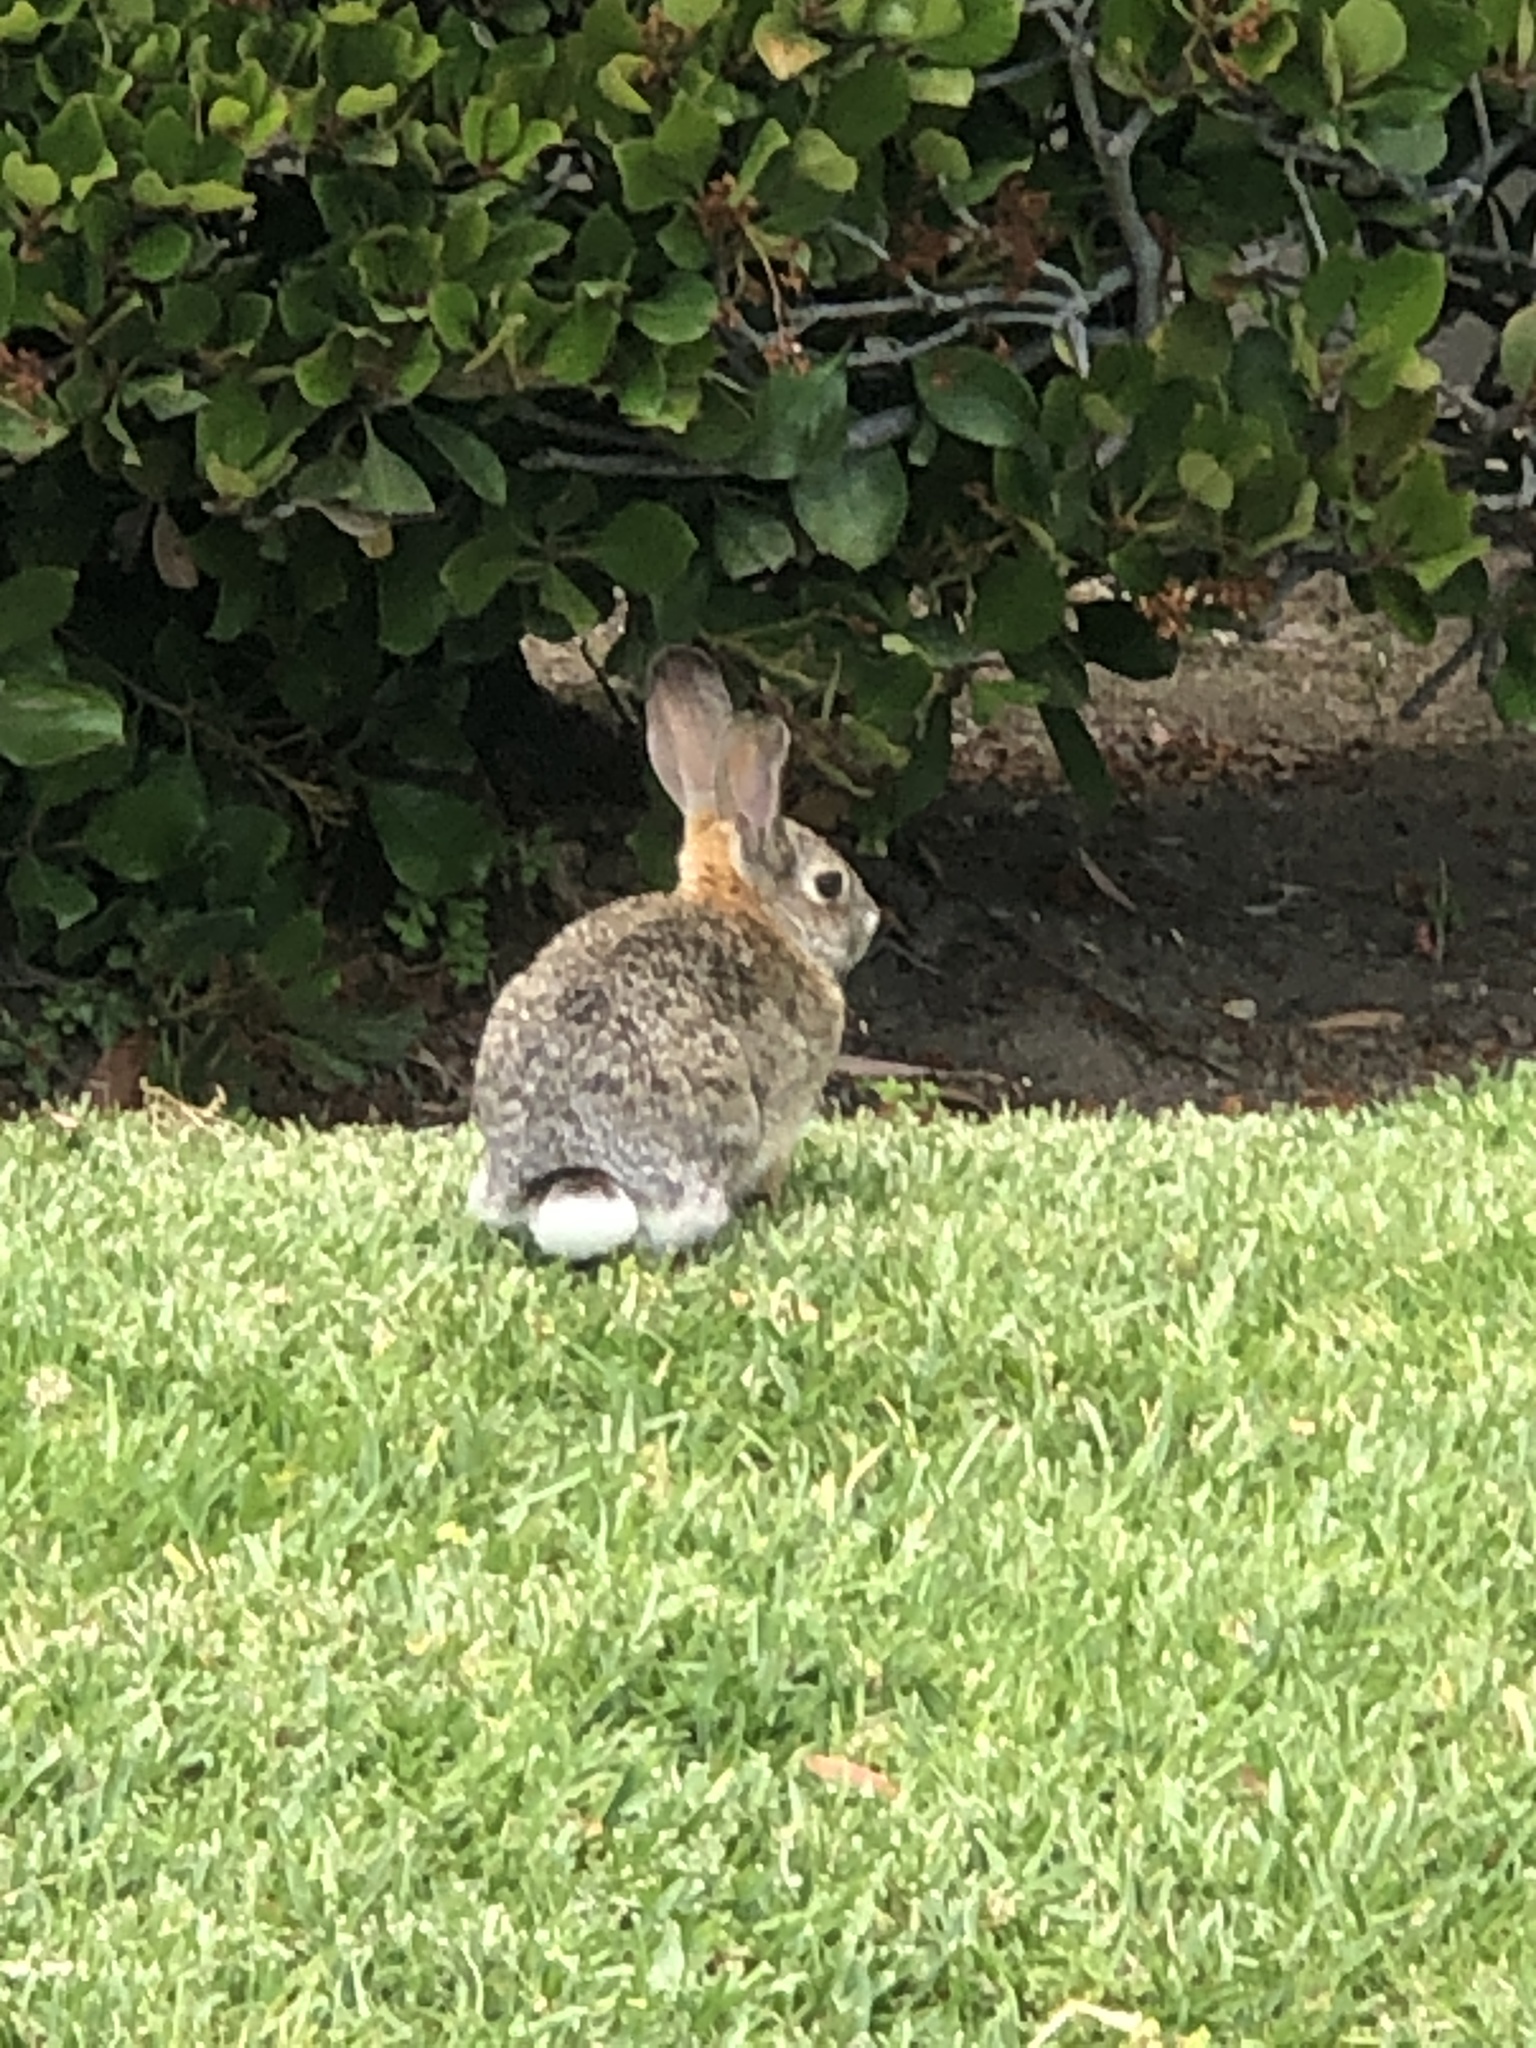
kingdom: Animalia
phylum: Chordata
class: Mammalia
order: Lagomorpha
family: Leporidae
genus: Sylvilagus
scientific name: Sylvilagus audubonii
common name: Desert cottontail
